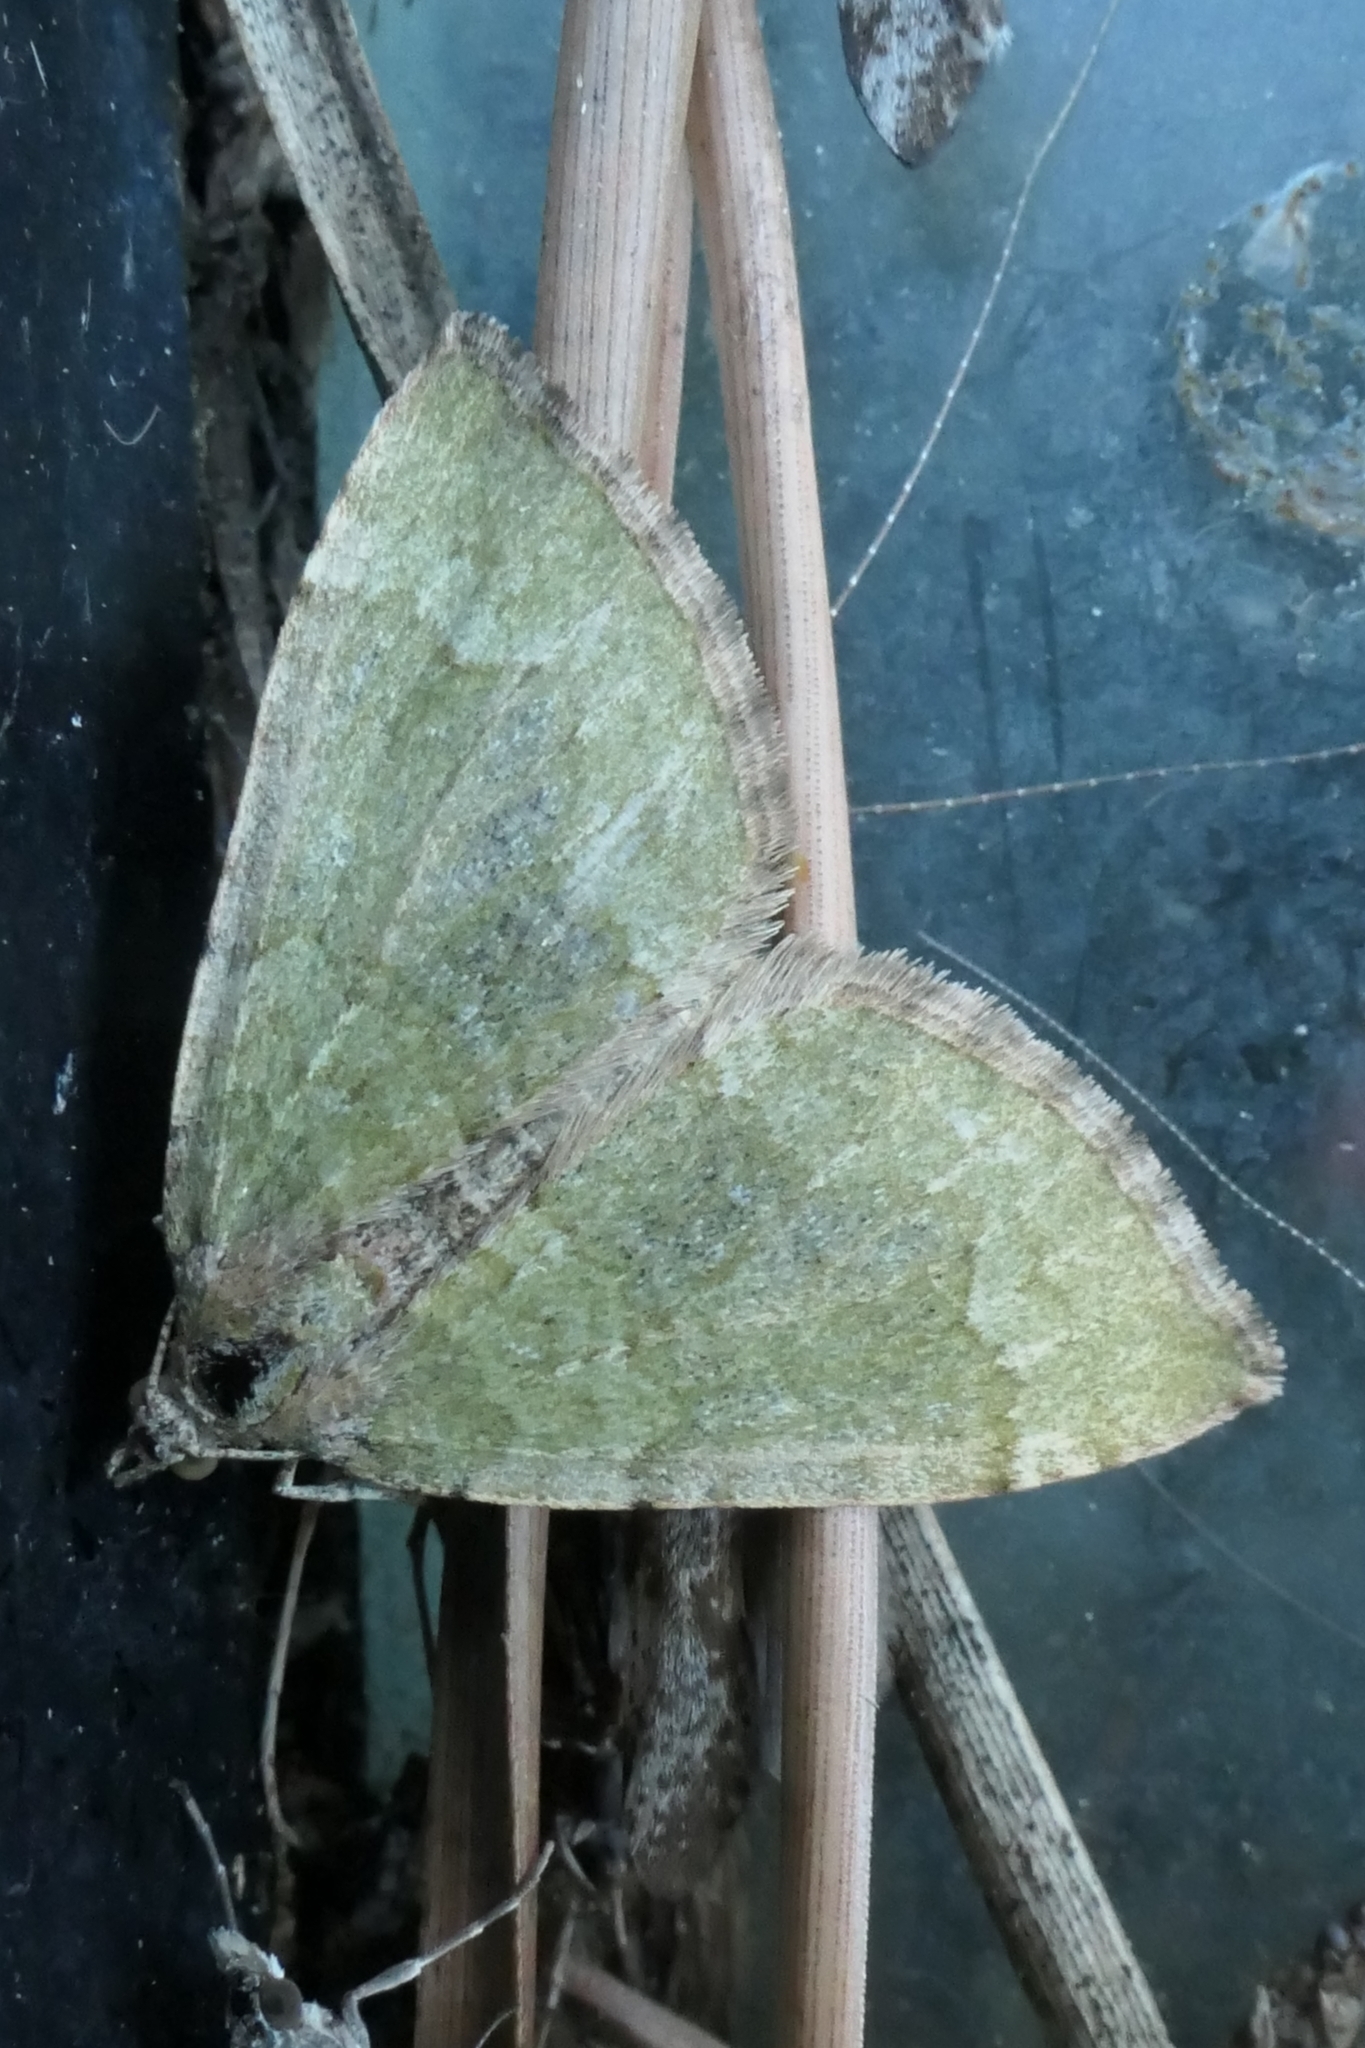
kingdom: Animalia
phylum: Arthropoda
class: Insecta
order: Lepidoptera
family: Geometridae
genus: Epyaxa
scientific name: Epyaxa rosearia
